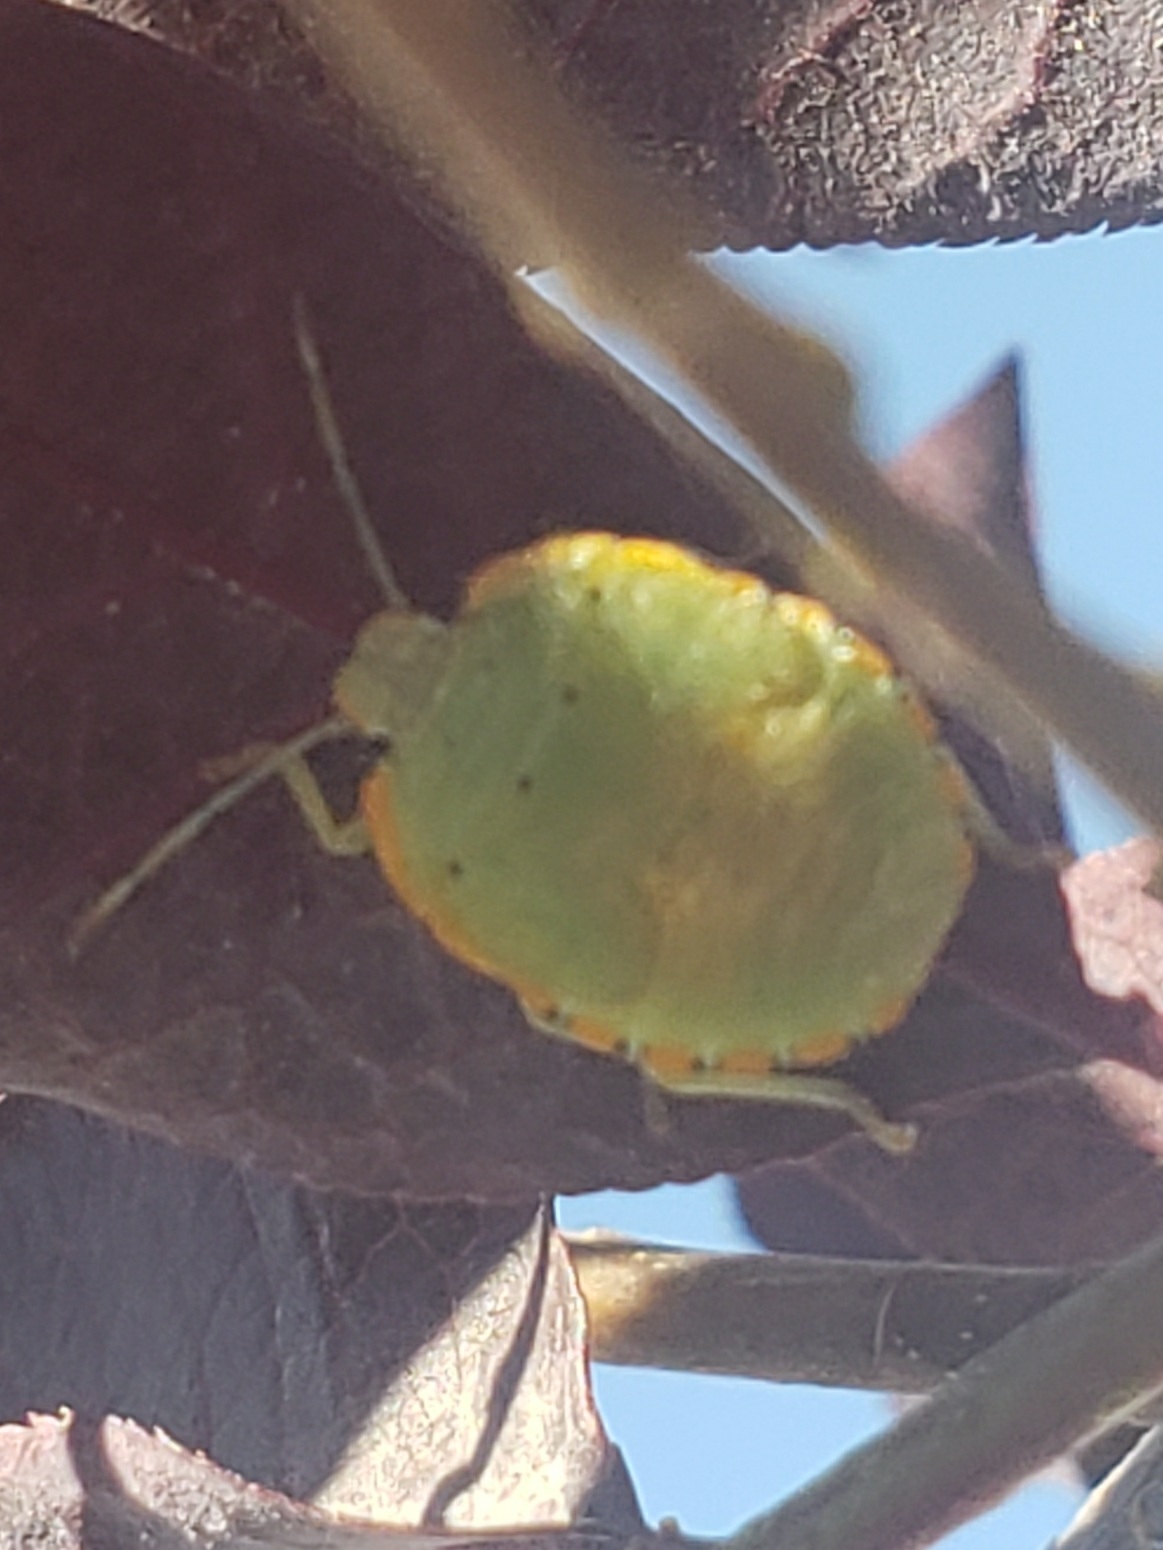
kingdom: Animalia
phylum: Arthropoda
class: Insecta
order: Hemiptera
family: Pentatomidae
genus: Chinavia
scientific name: Chinavia hilaris
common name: Green stink bug
